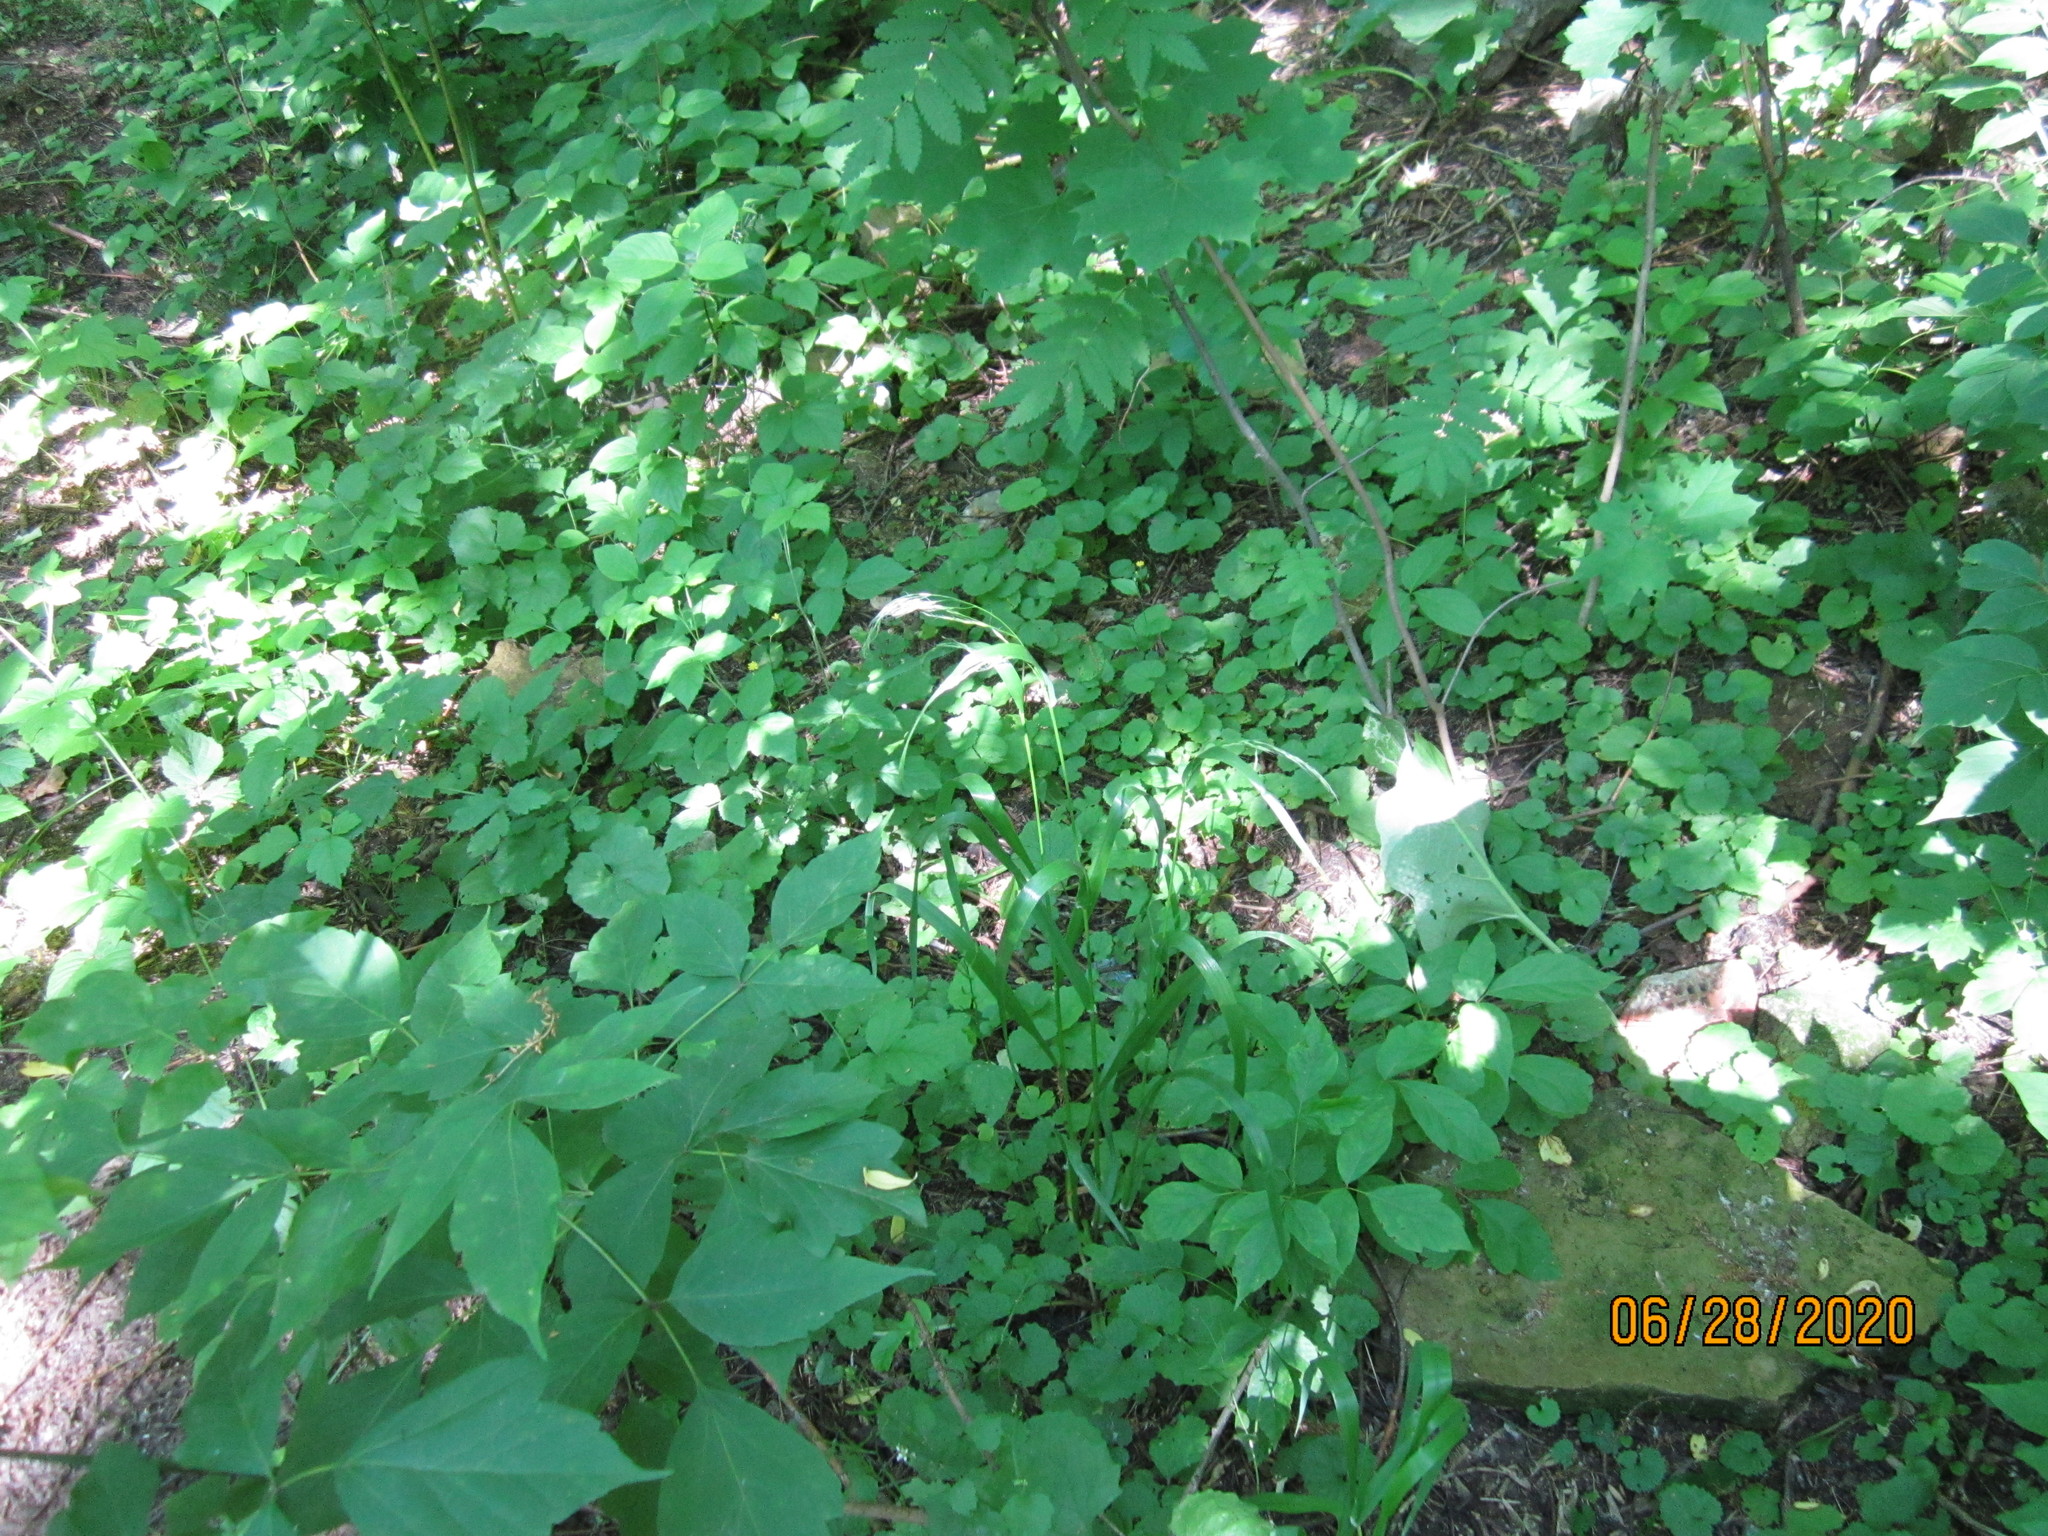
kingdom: Plantae
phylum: Tracheophyta
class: Liliopsida
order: Poales
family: Poaceae
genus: Lolium
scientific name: Lolium giganteum
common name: Giant fescue
